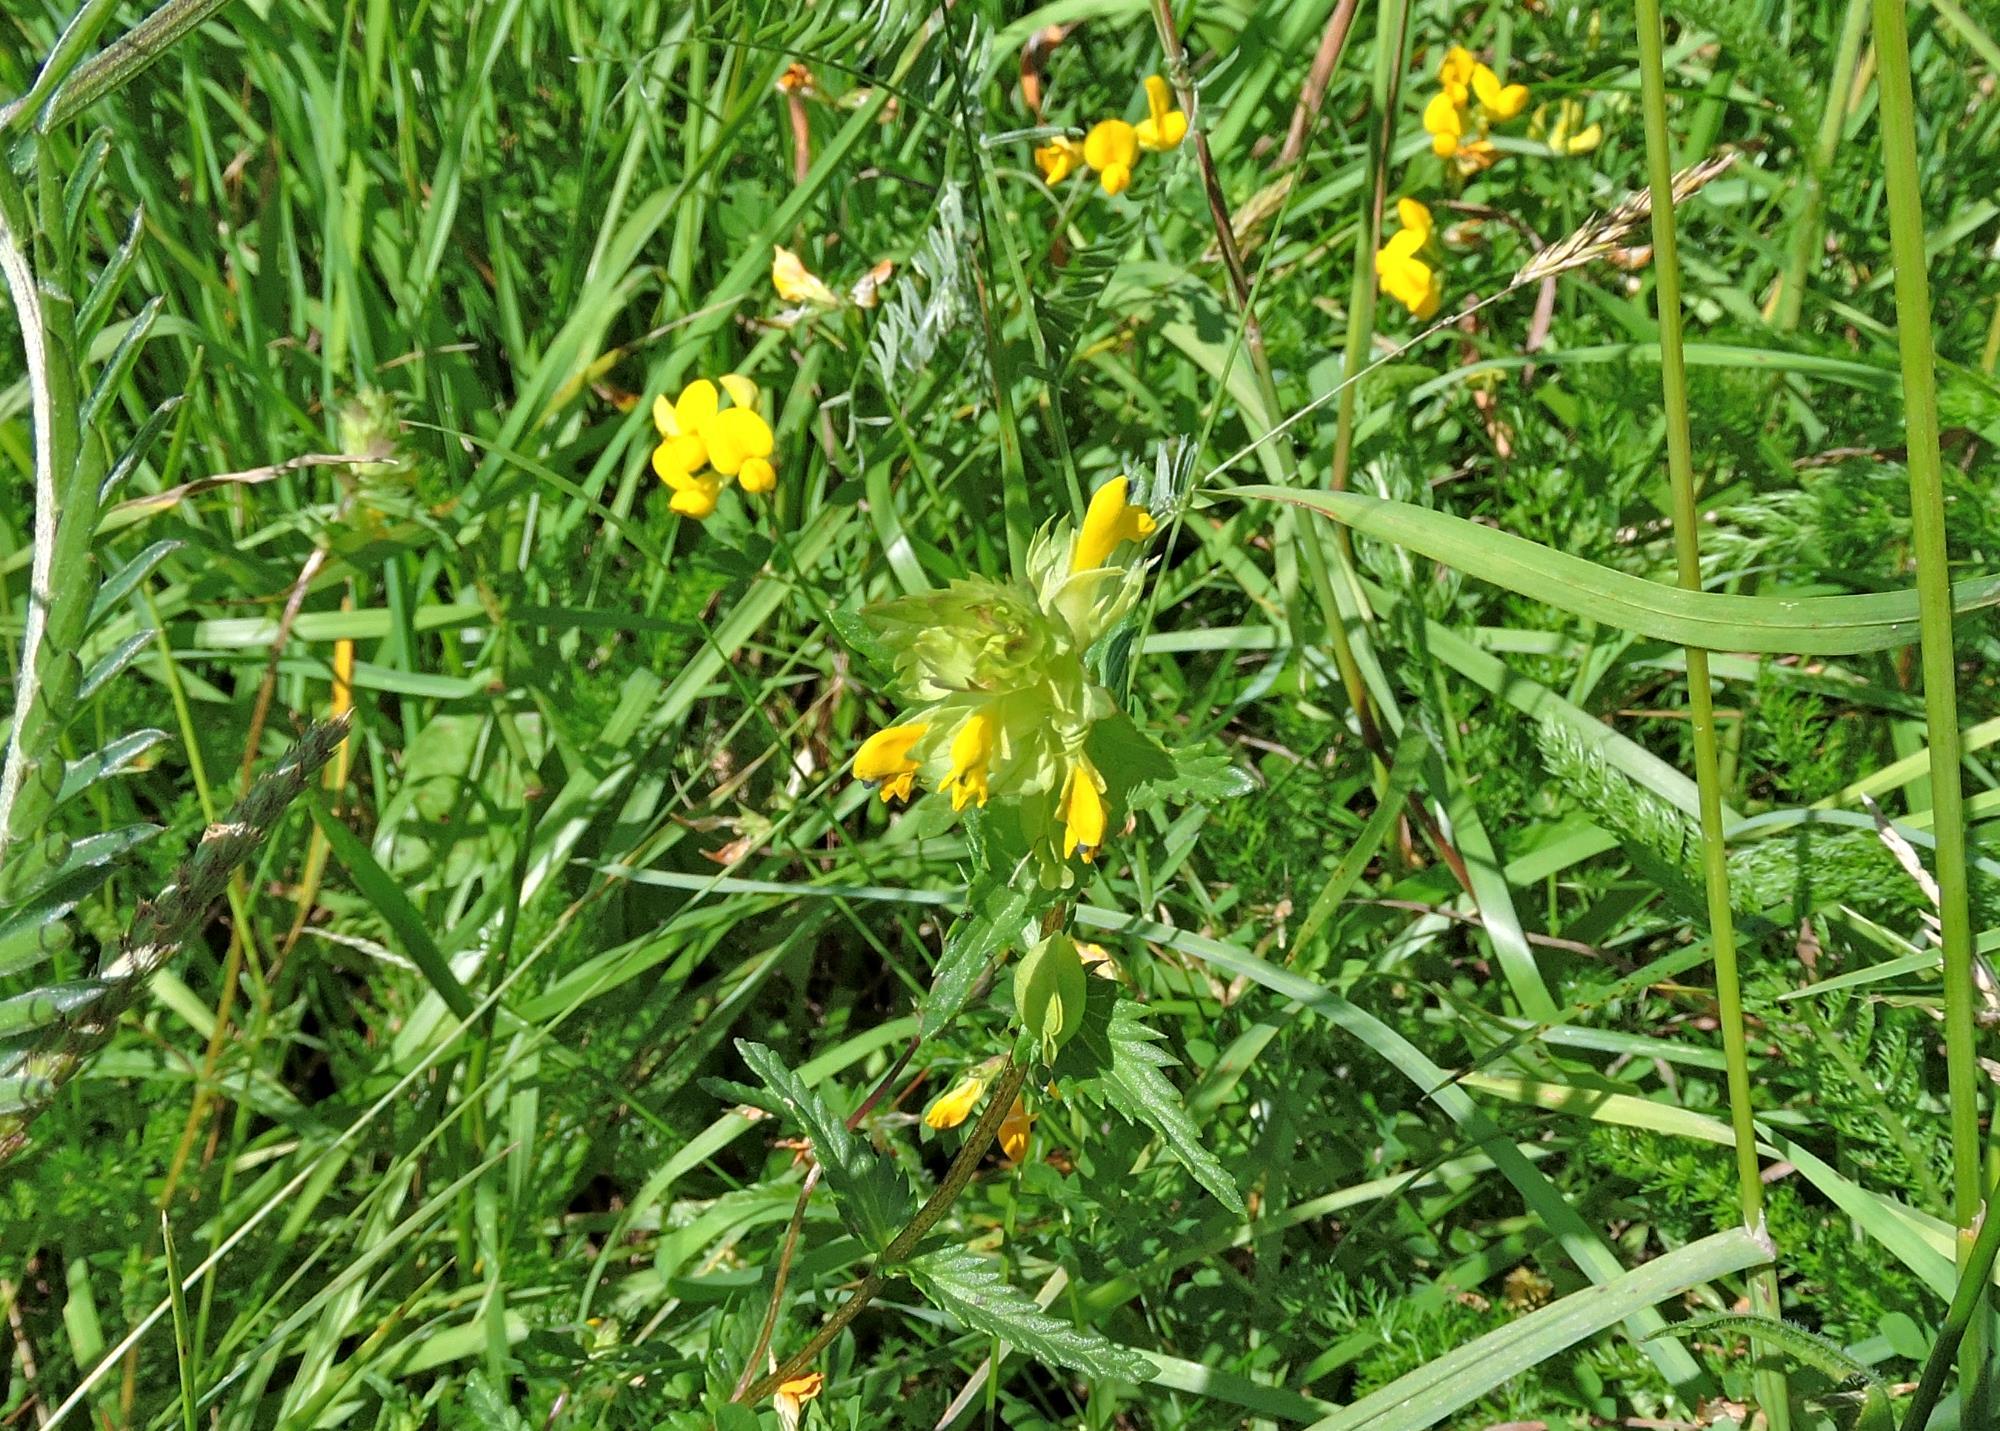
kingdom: Plantae
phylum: Tracheophyta
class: Magnoliopsida
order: Lamiales
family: Orobanchaceae
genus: Rhinanthus
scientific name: Rhinanthus minor
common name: Yellow-rattle
